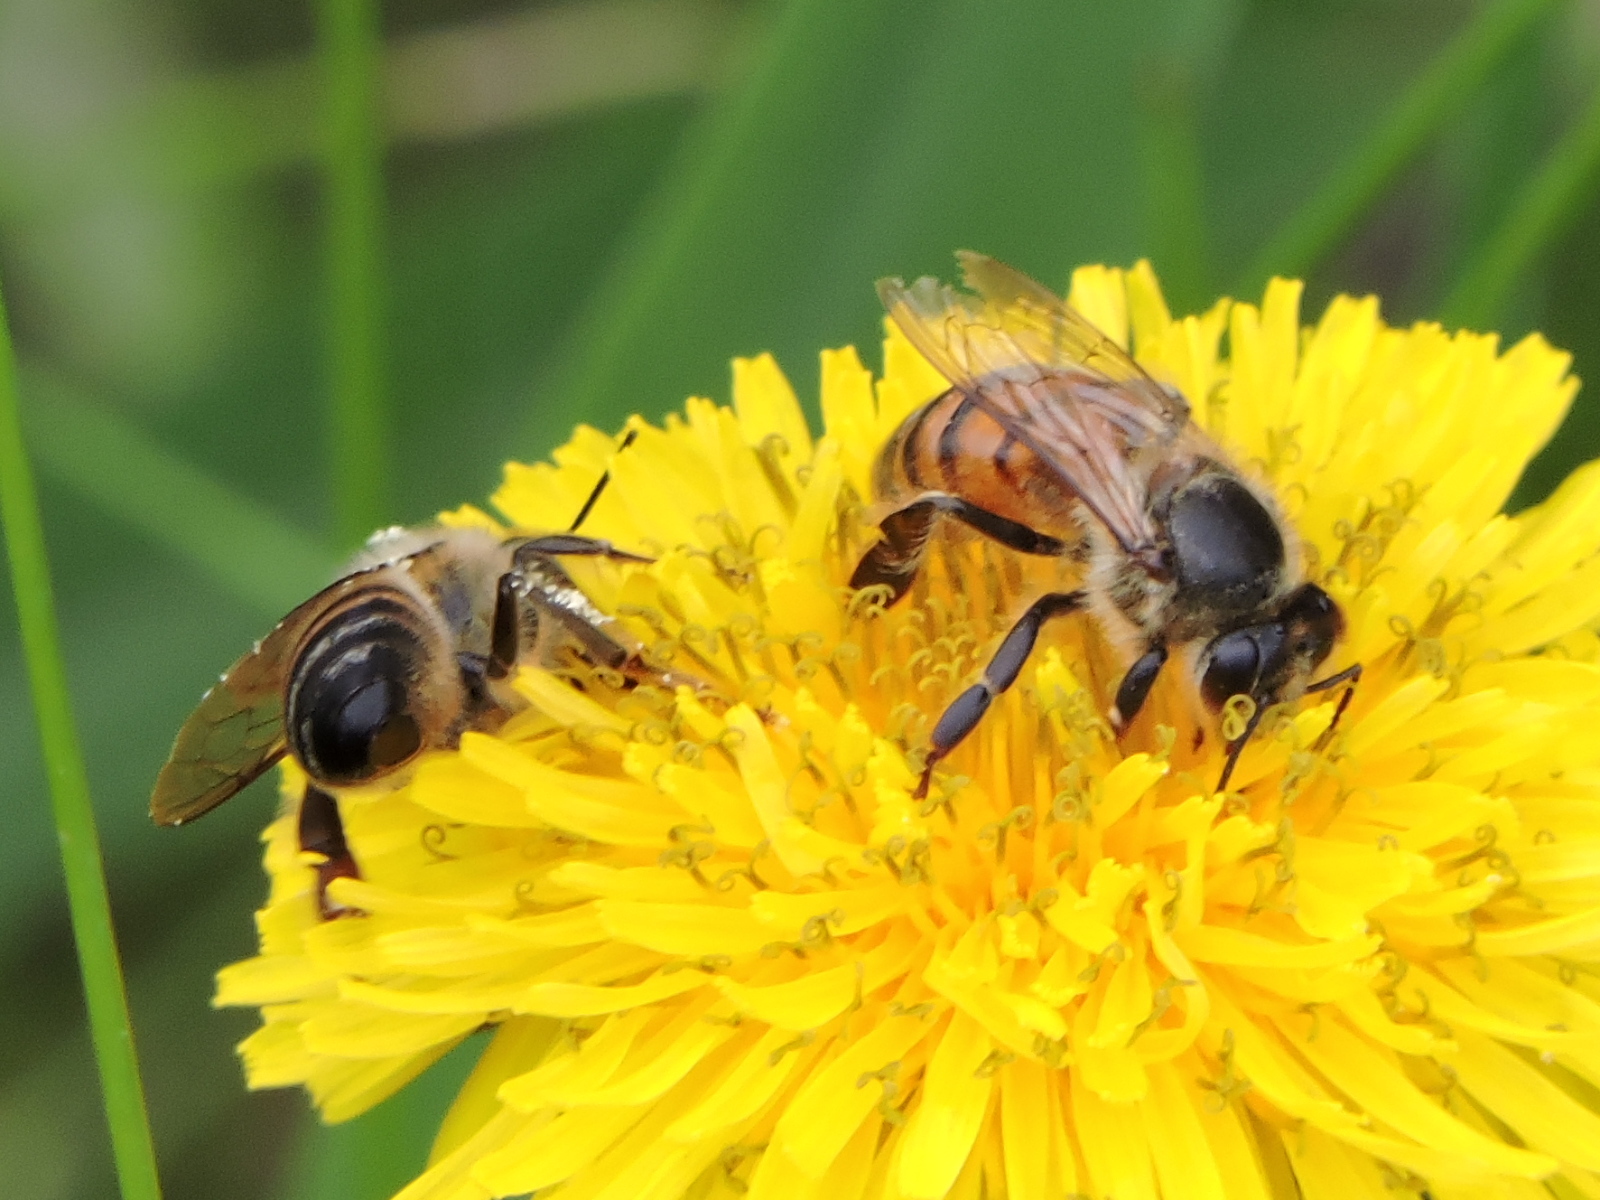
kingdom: Animalia
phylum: Arthropoda
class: Insecta
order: Hymenoptera
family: Apidae
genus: Apis
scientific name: Apis mellifera
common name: Honey bee
